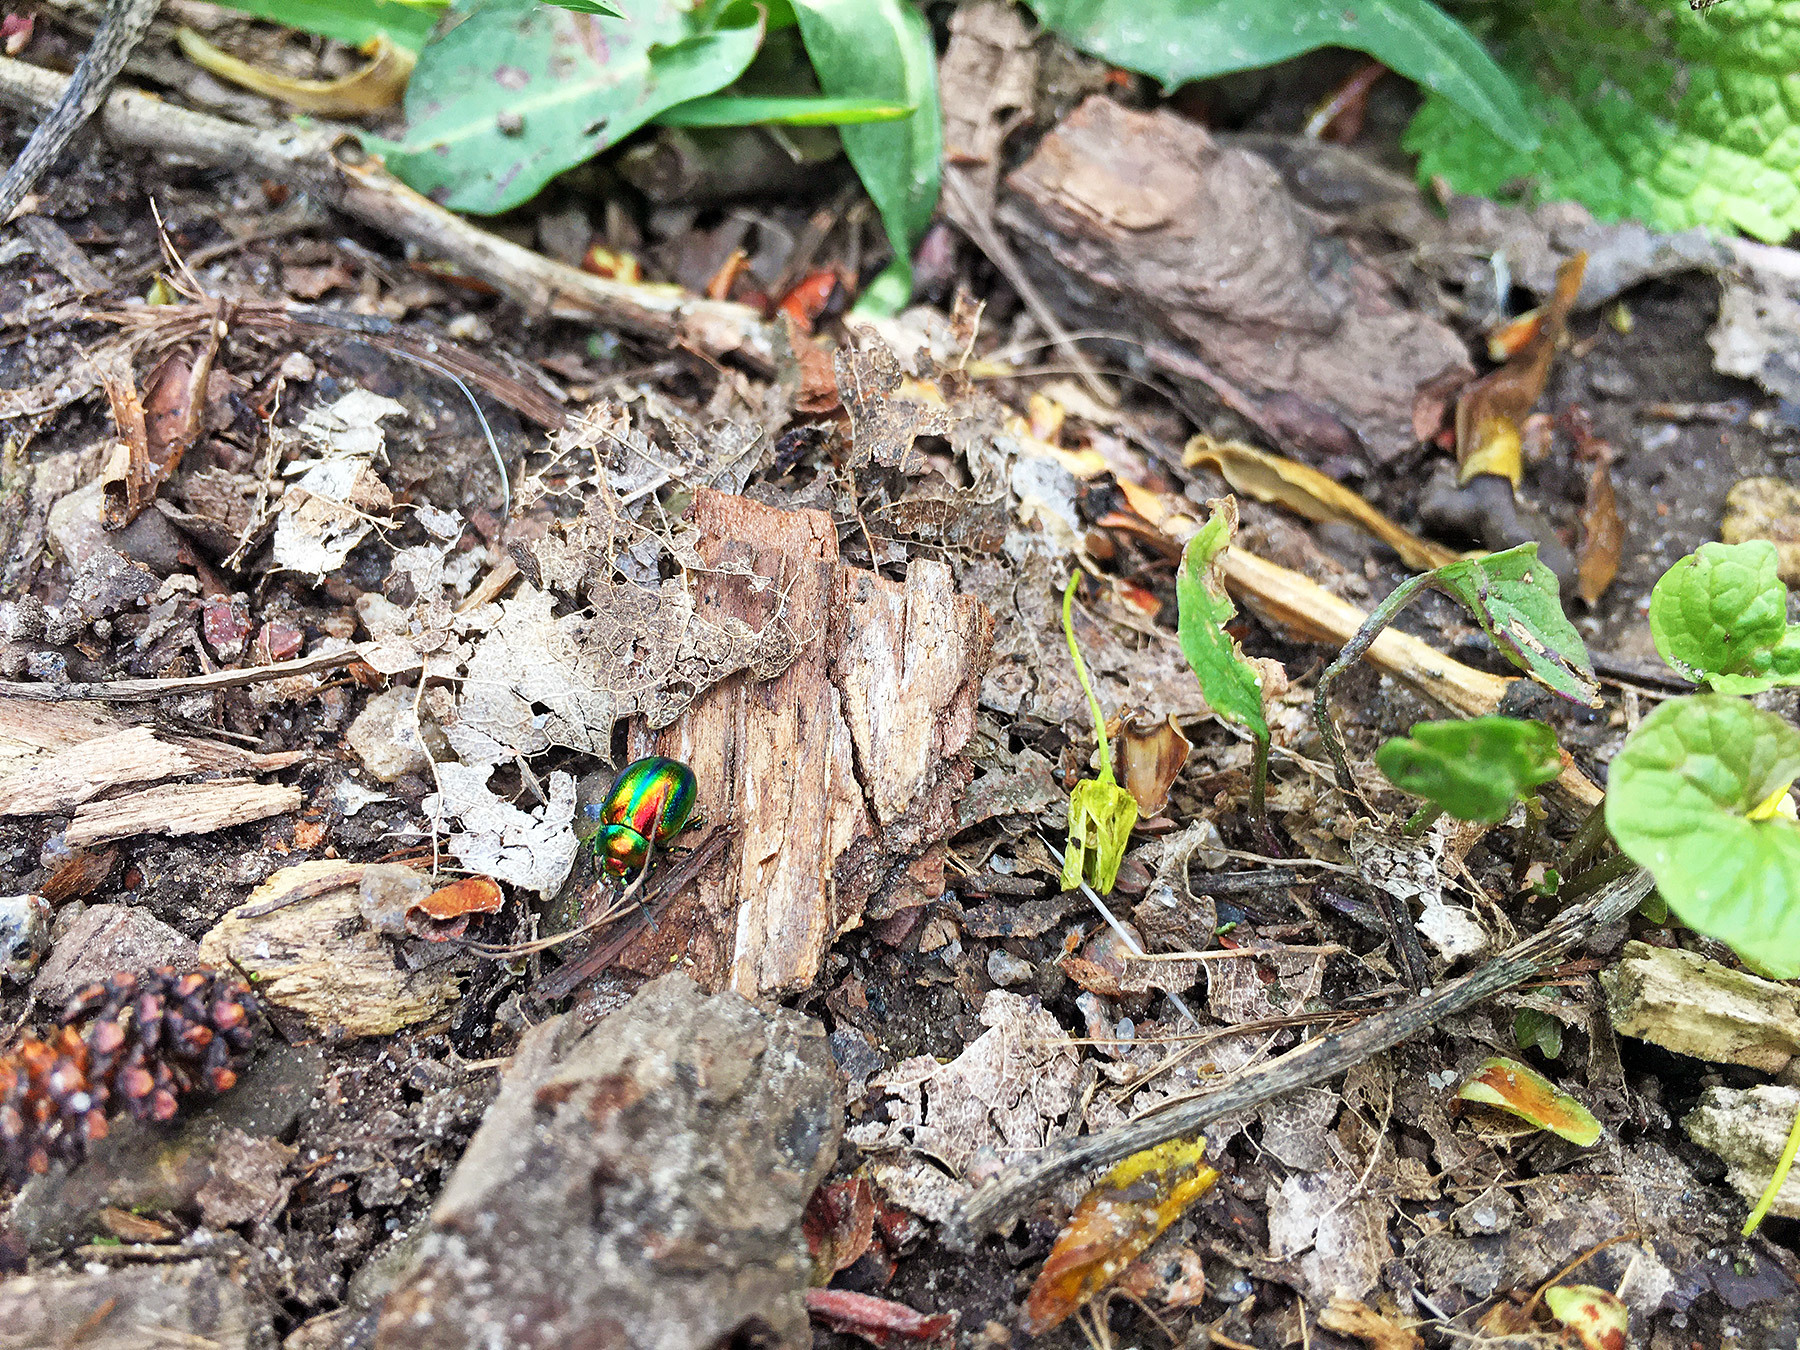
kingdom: Animalia
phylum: Arthropoda
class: Insecta
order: Coleoptera
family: Chrysomelidae
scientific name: Chrysomelidae
